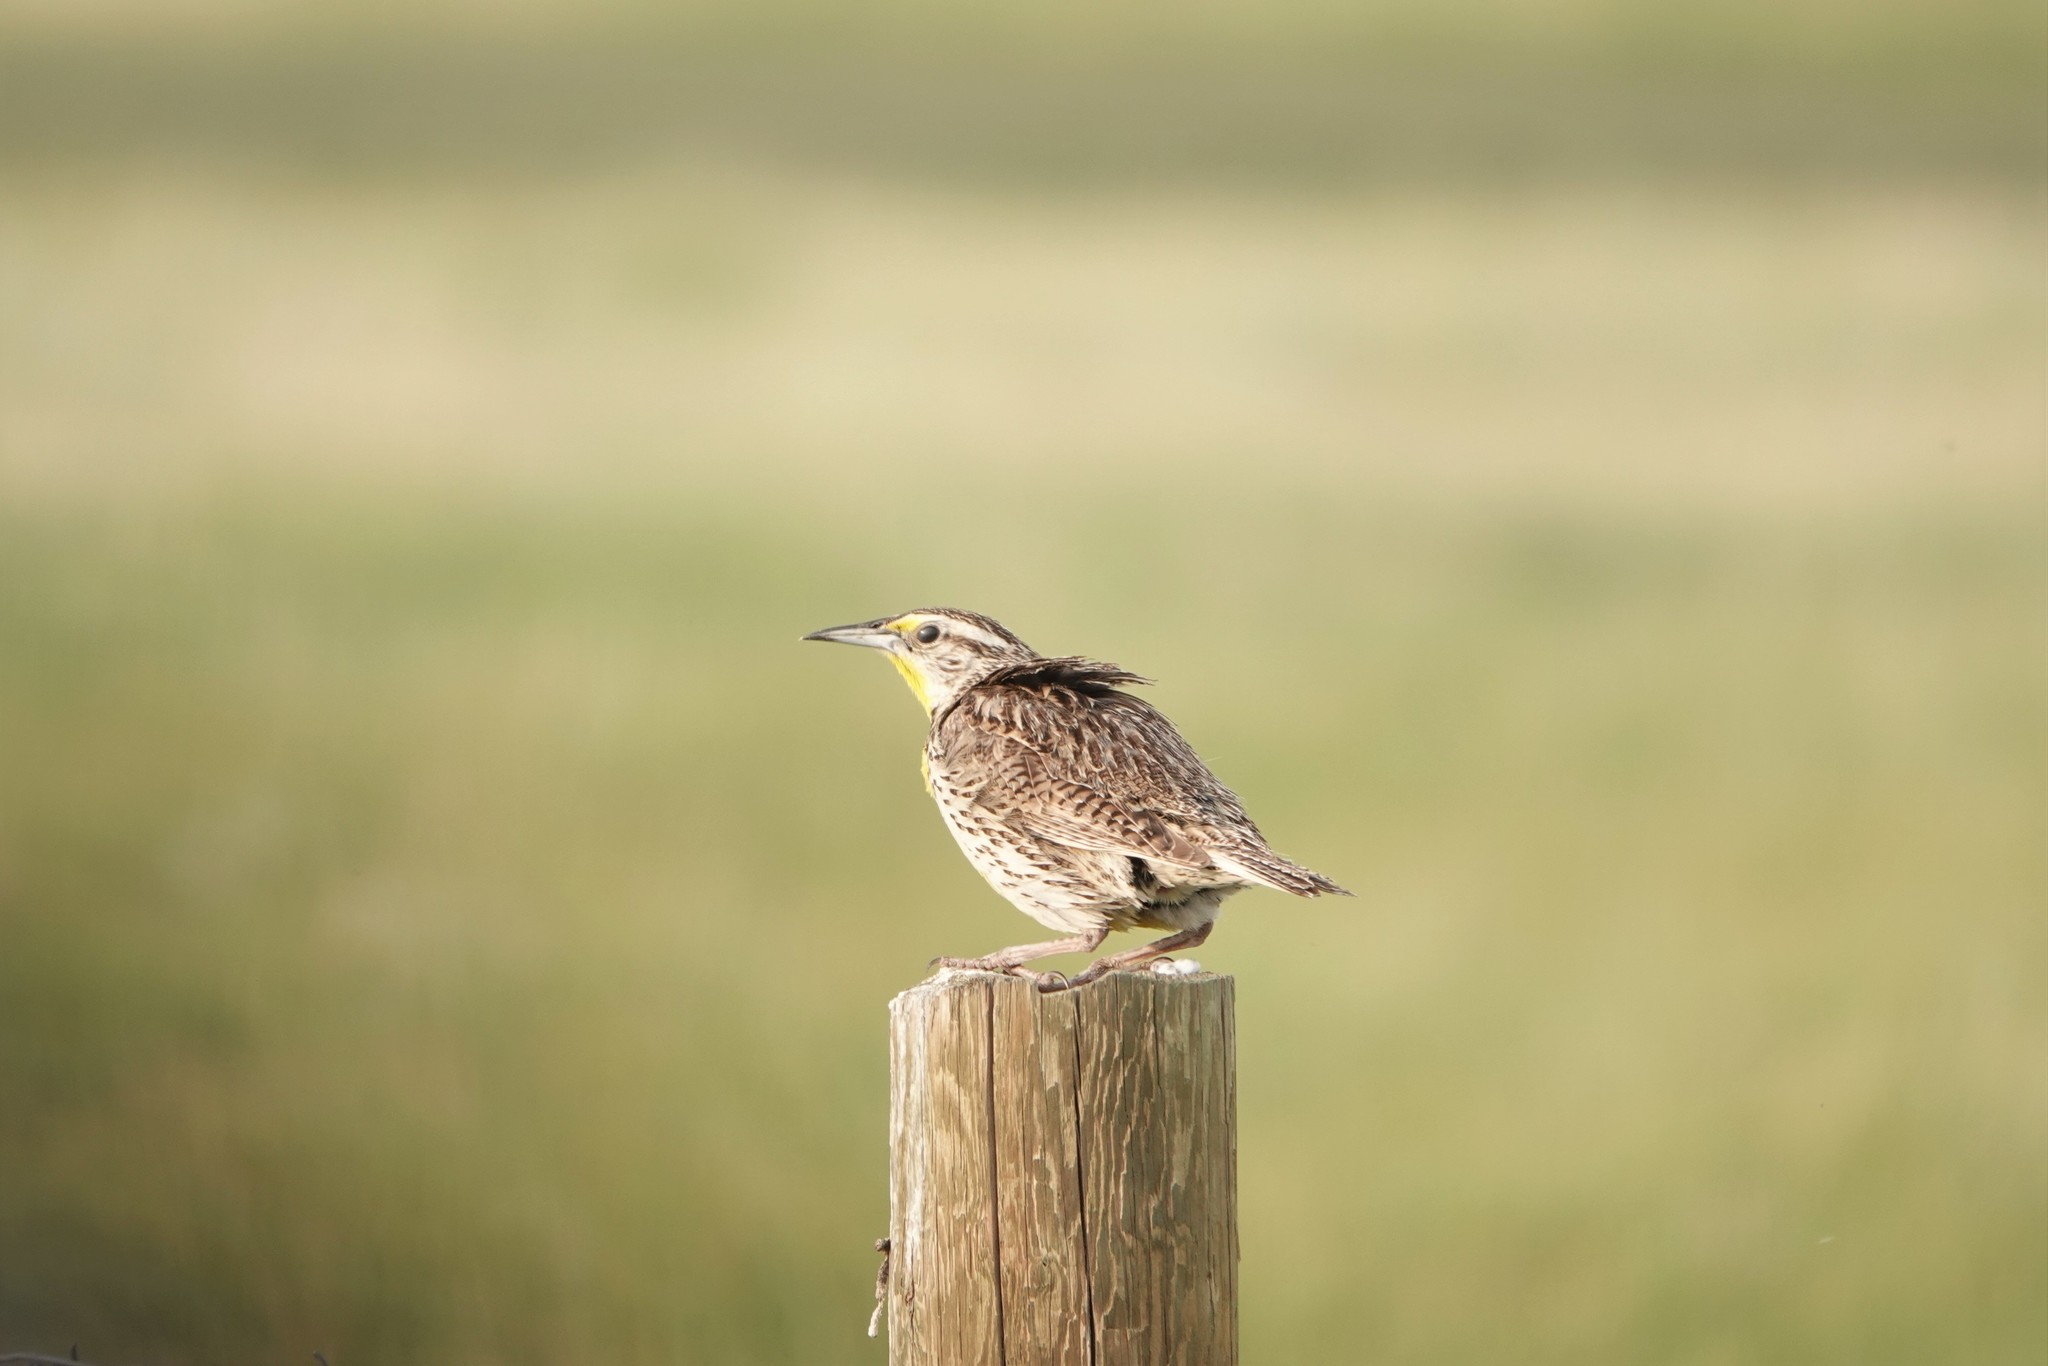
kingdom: Animalia
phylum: Chordata
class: Aves
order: Passeriformes
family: Icteridae
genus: Sturnella
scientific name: Sturnella neglecta
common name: Western meadowlark
